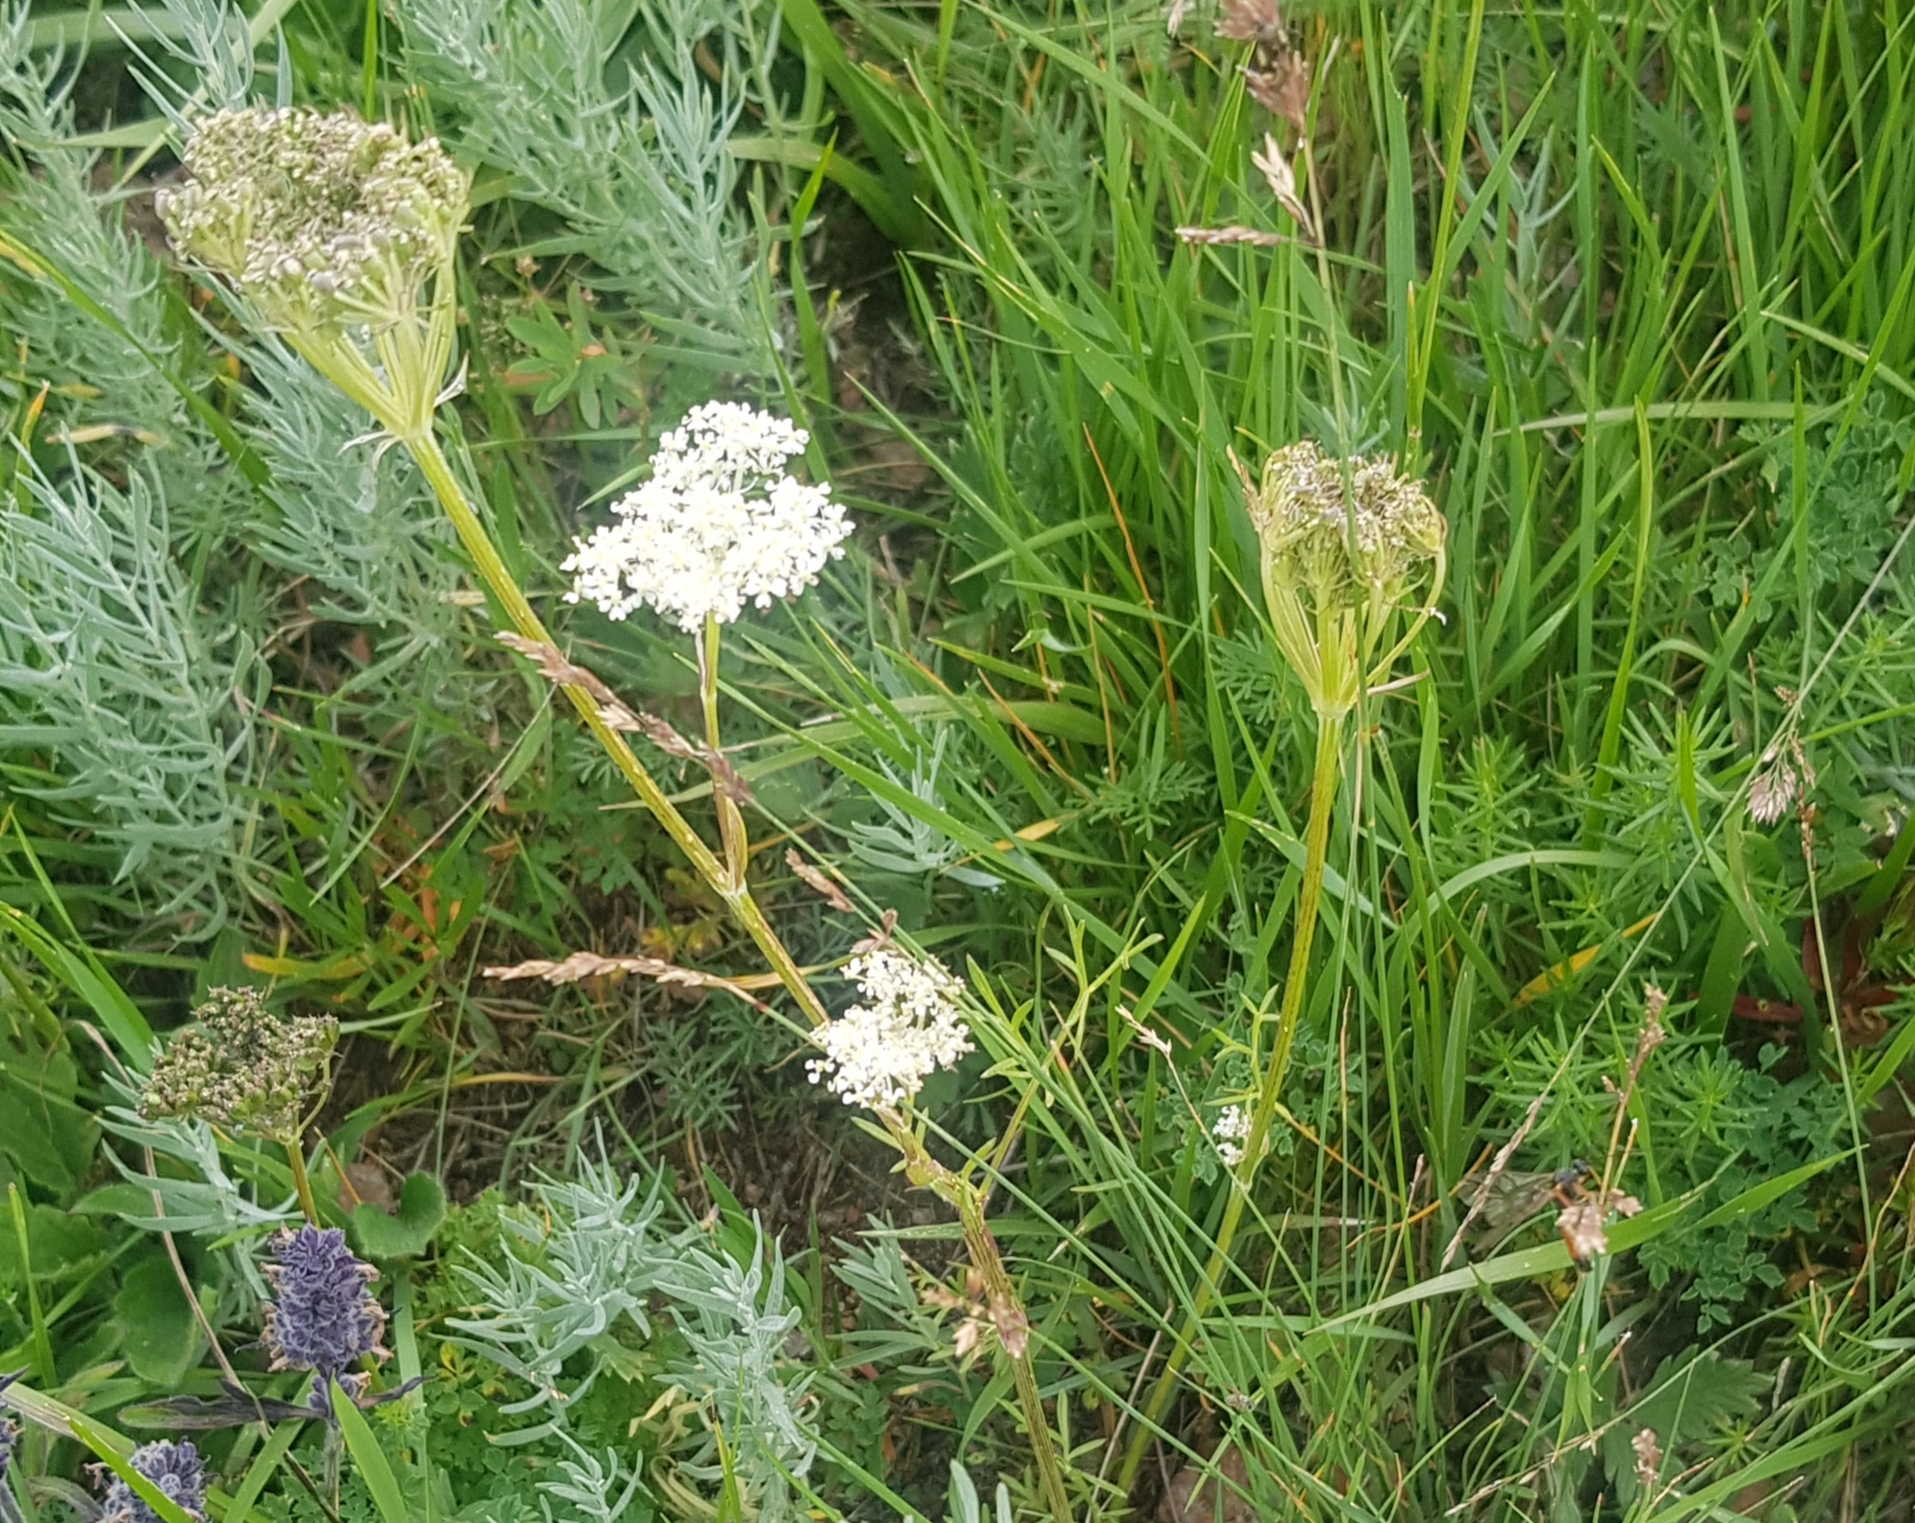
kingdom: Plantae
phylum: Tracheophyta
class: Magnoliopsida
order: Apiales
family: Apiaceae
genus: Kitagawia
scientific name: Kitagawia baicalensis
